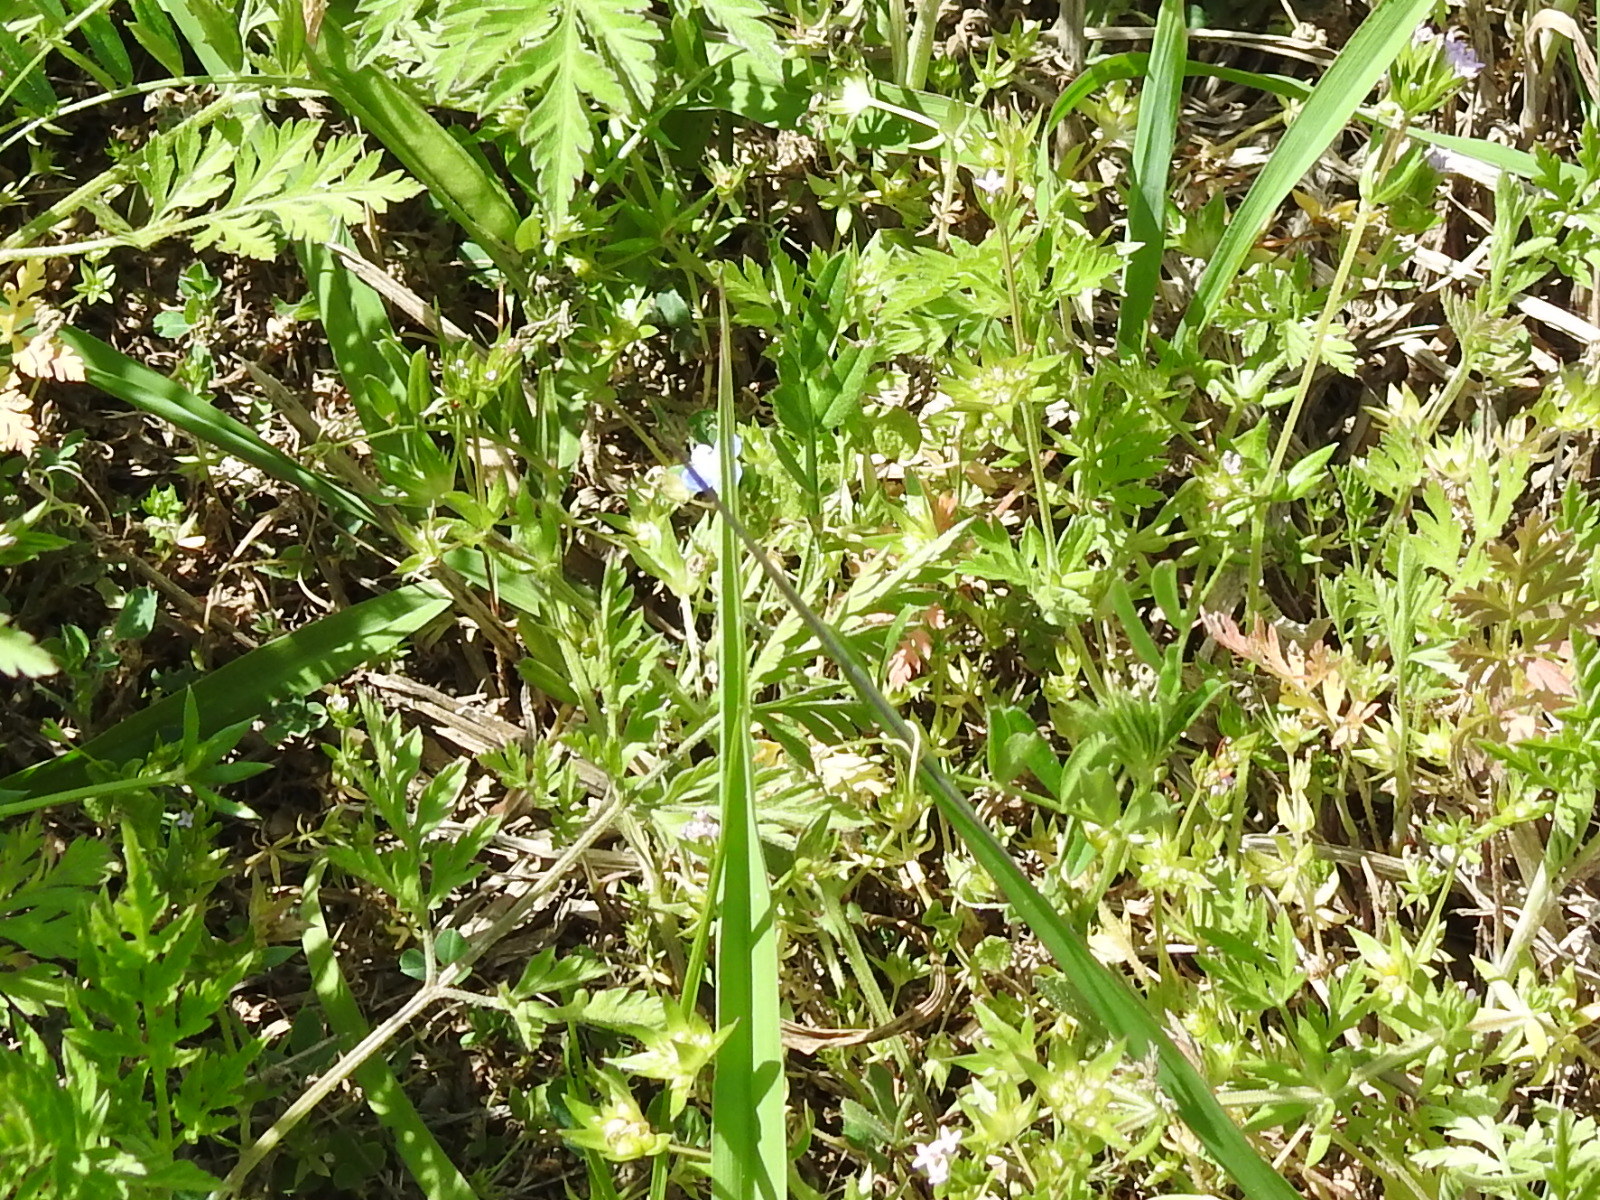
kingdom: Plantae
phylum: Tracheophyta
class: Magnoliopsida
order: Lamiales
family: Plantaginaceae
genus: Veronica
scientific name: Veronica persica
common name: Common field-speedwell
